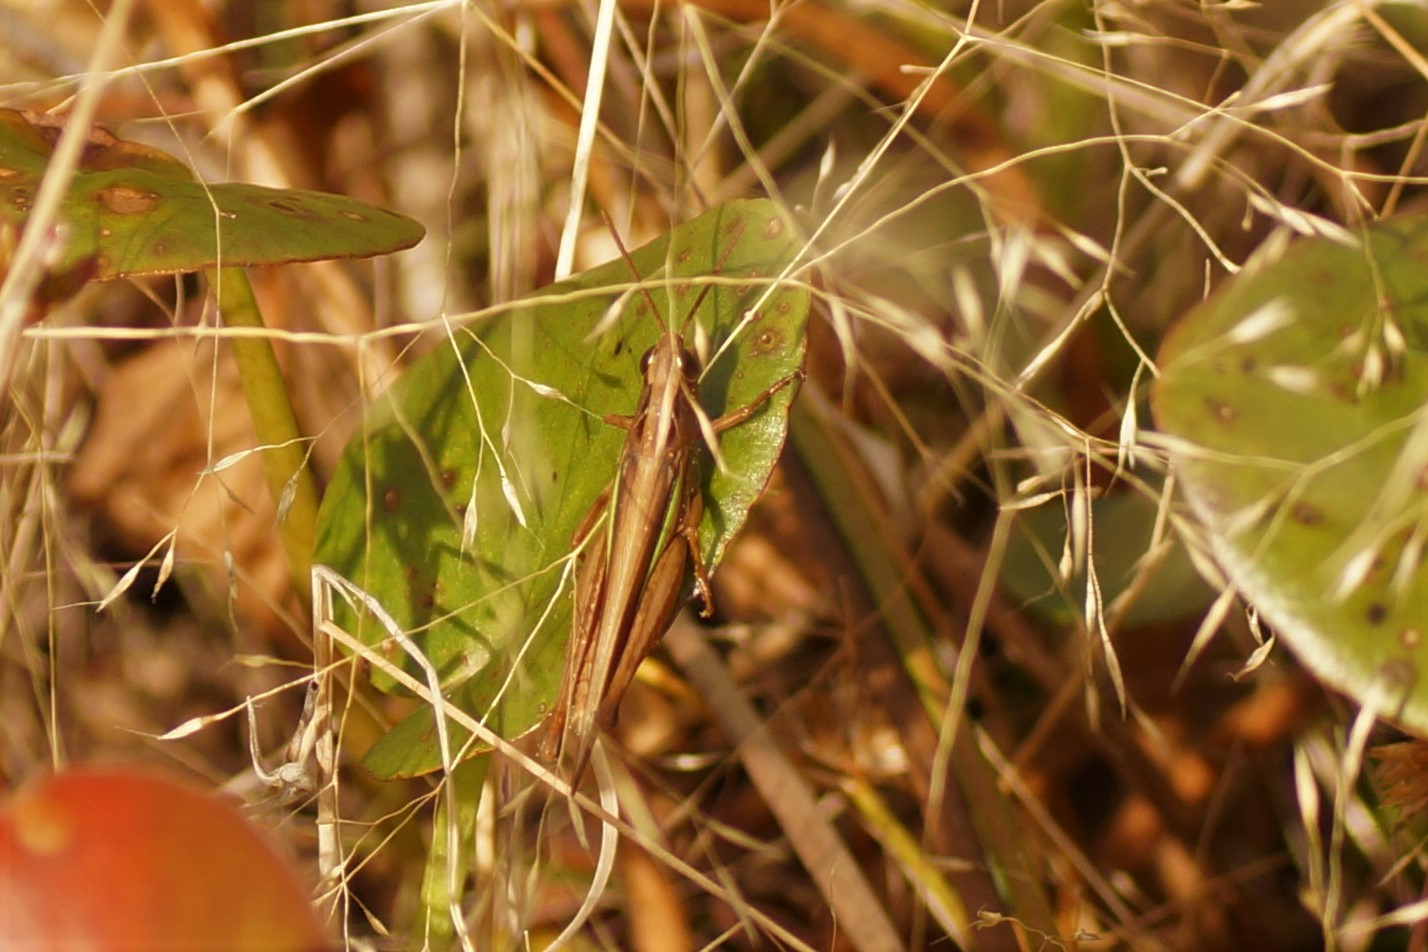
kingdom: Animalia
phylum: Arthropoda
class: Insecta
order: Orthoptera
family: Acrididae
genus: Schizobothrus
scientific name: Schizobothrus flavovittatus
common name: Disappearing grasshopper
